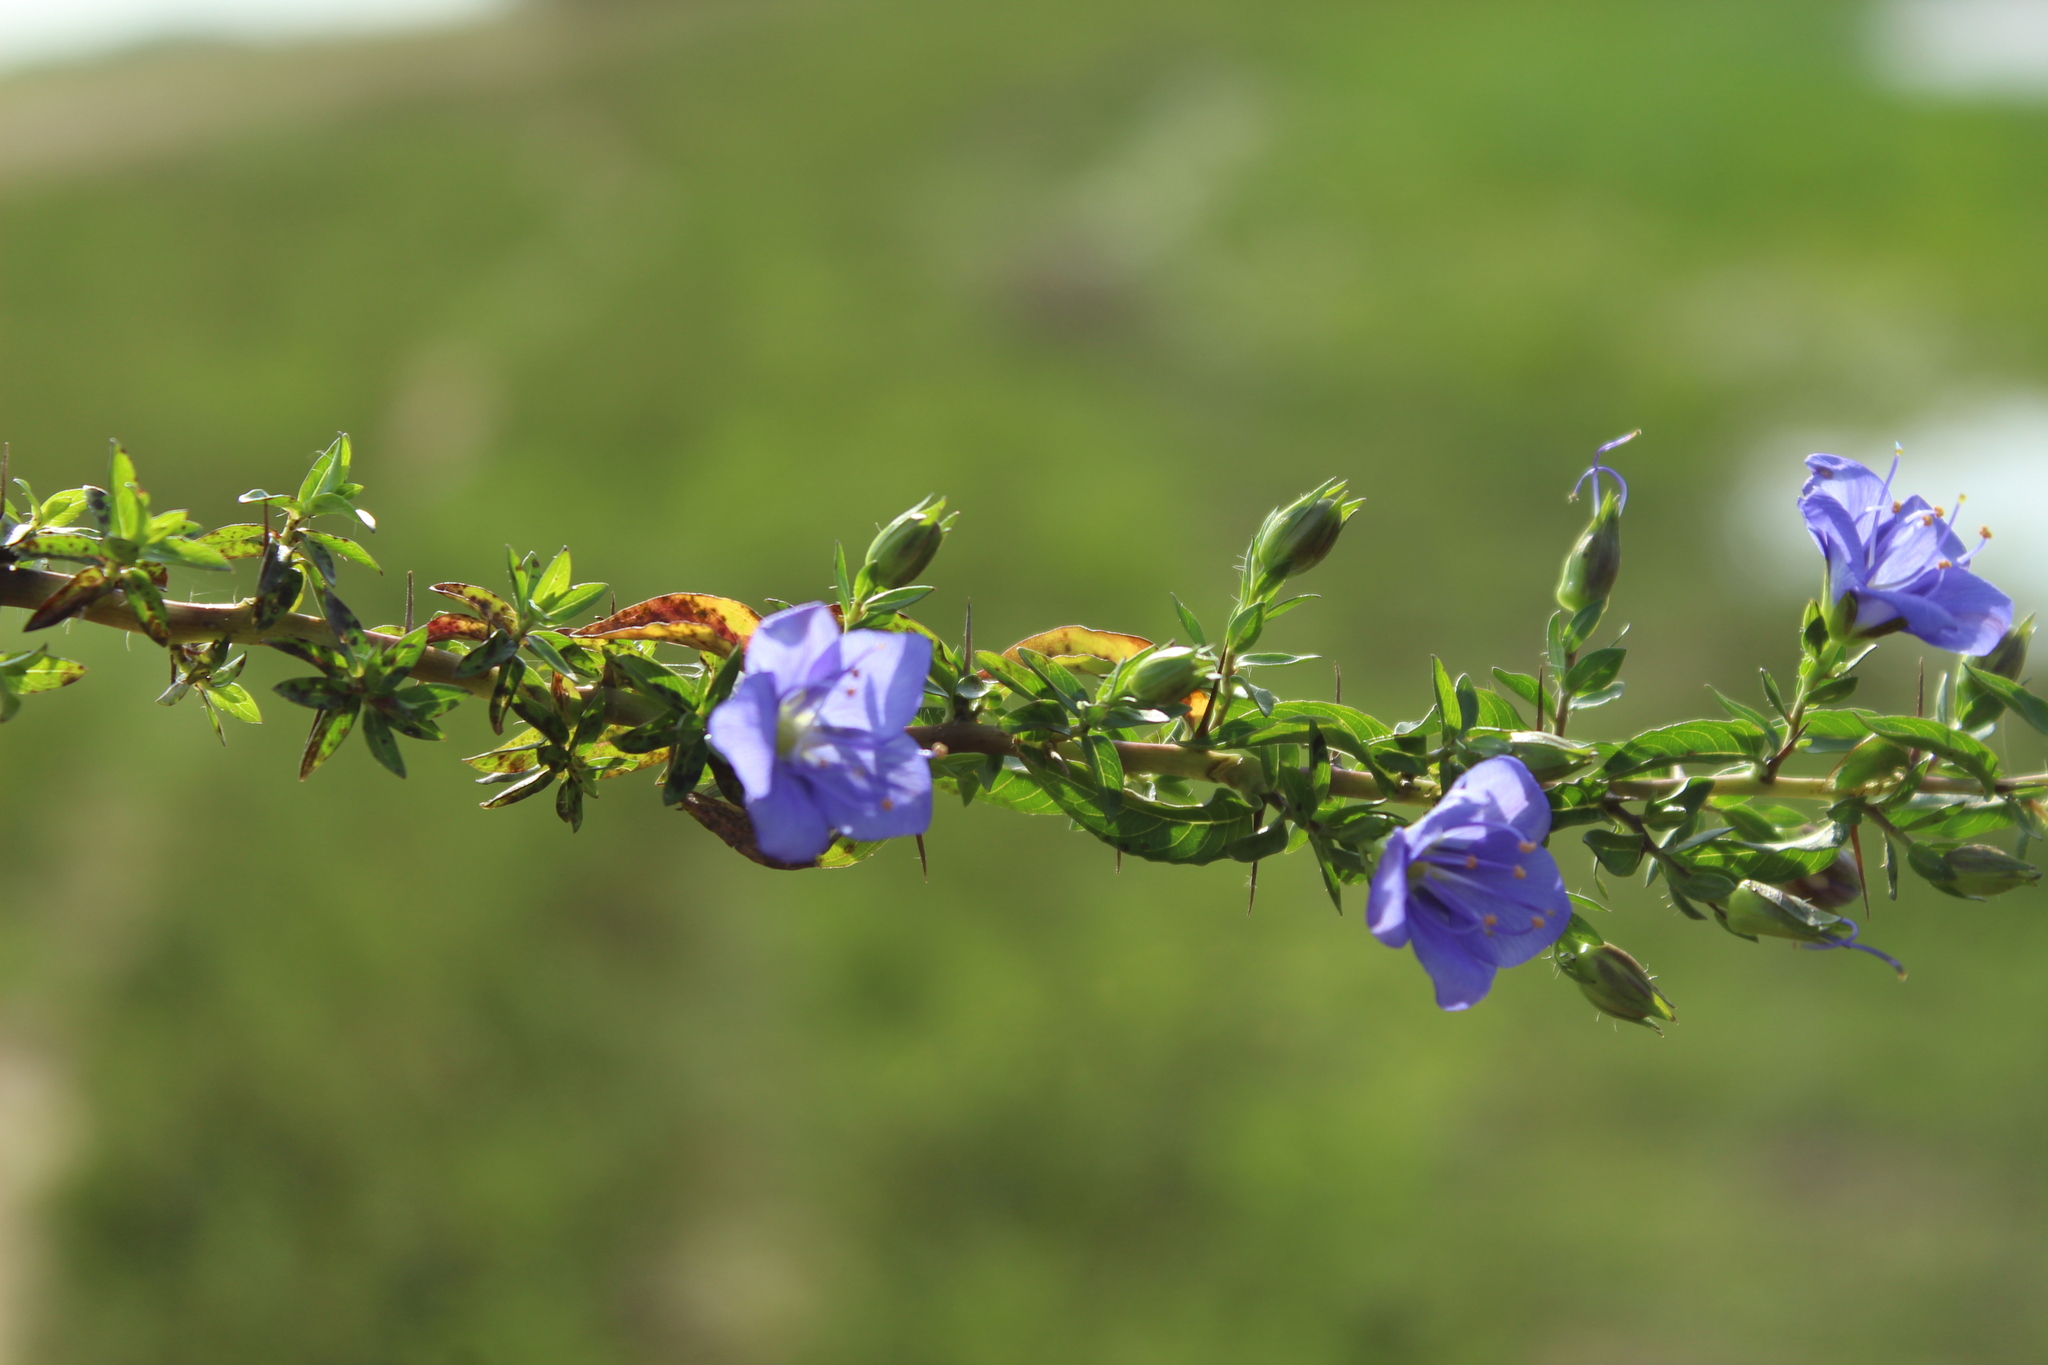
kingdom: Plantae
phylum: Tracheophyta
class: Magnoliopsida
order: Solanales
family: Hydroleaceae
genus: Hydrolea
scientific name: Hydrolea spinosa
